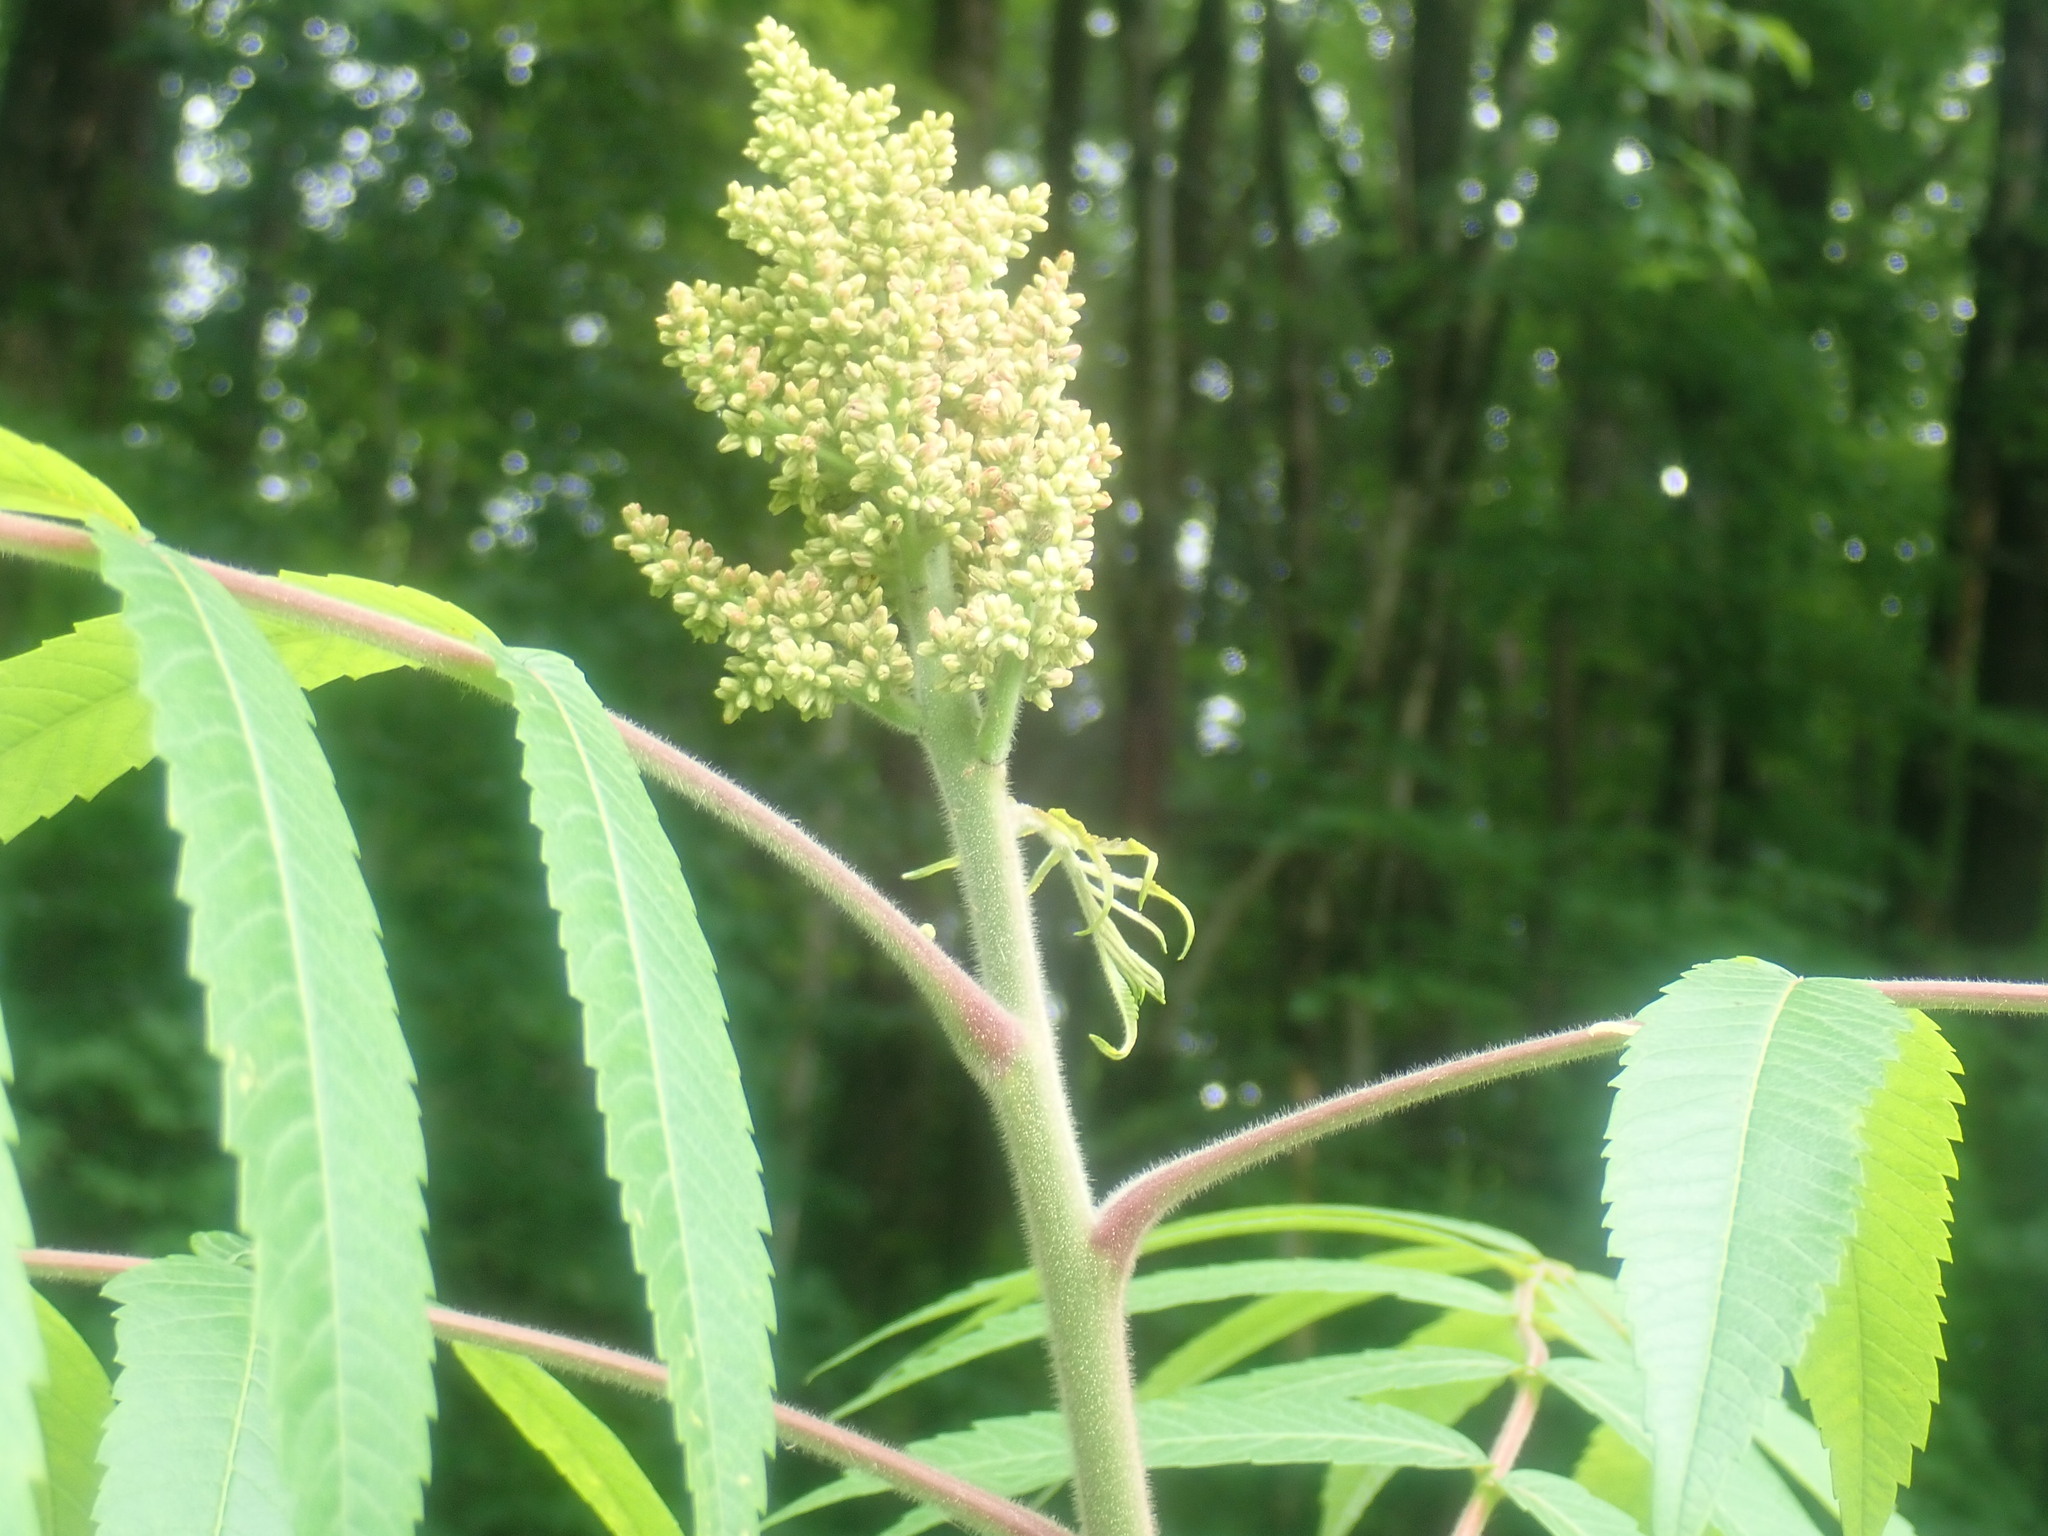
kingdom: Plantae
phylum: Tracheophyta
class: Magnoliopsida
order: Sapindales
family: Anacardiaceae
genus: Rhus
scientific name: Rhus typhina
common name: Staghorn sumac
